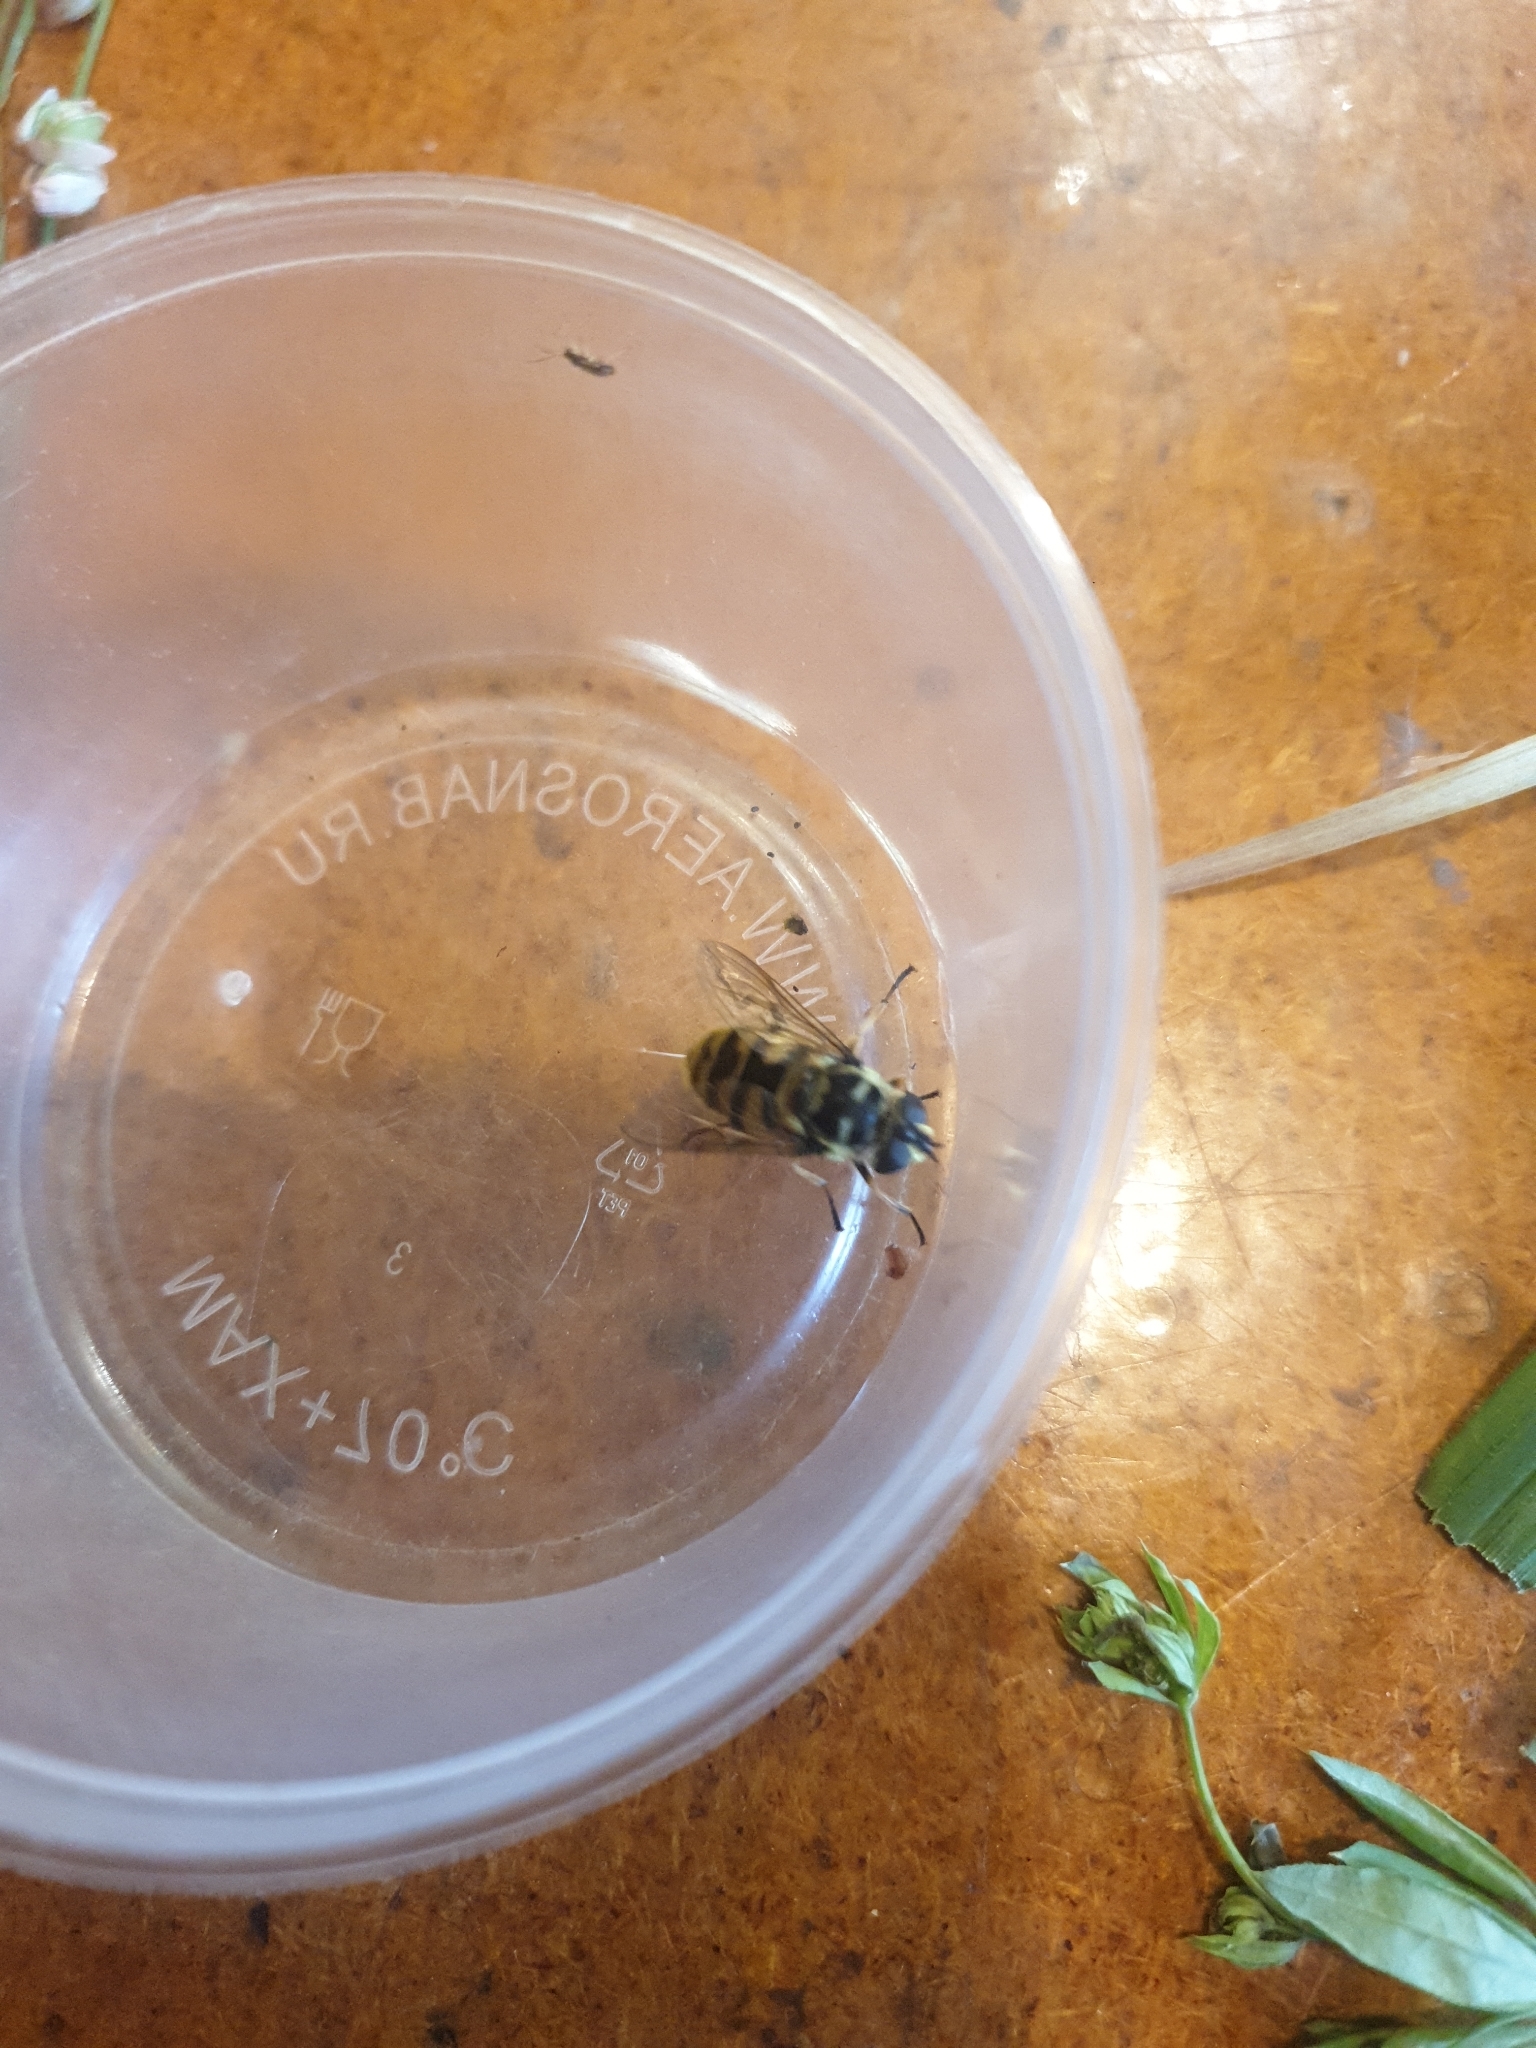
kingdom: Animalia
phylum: Arthropoda
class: Insecta
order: Diptera
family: Syrphidae
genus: Myathropa
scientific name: Myathropa florea
